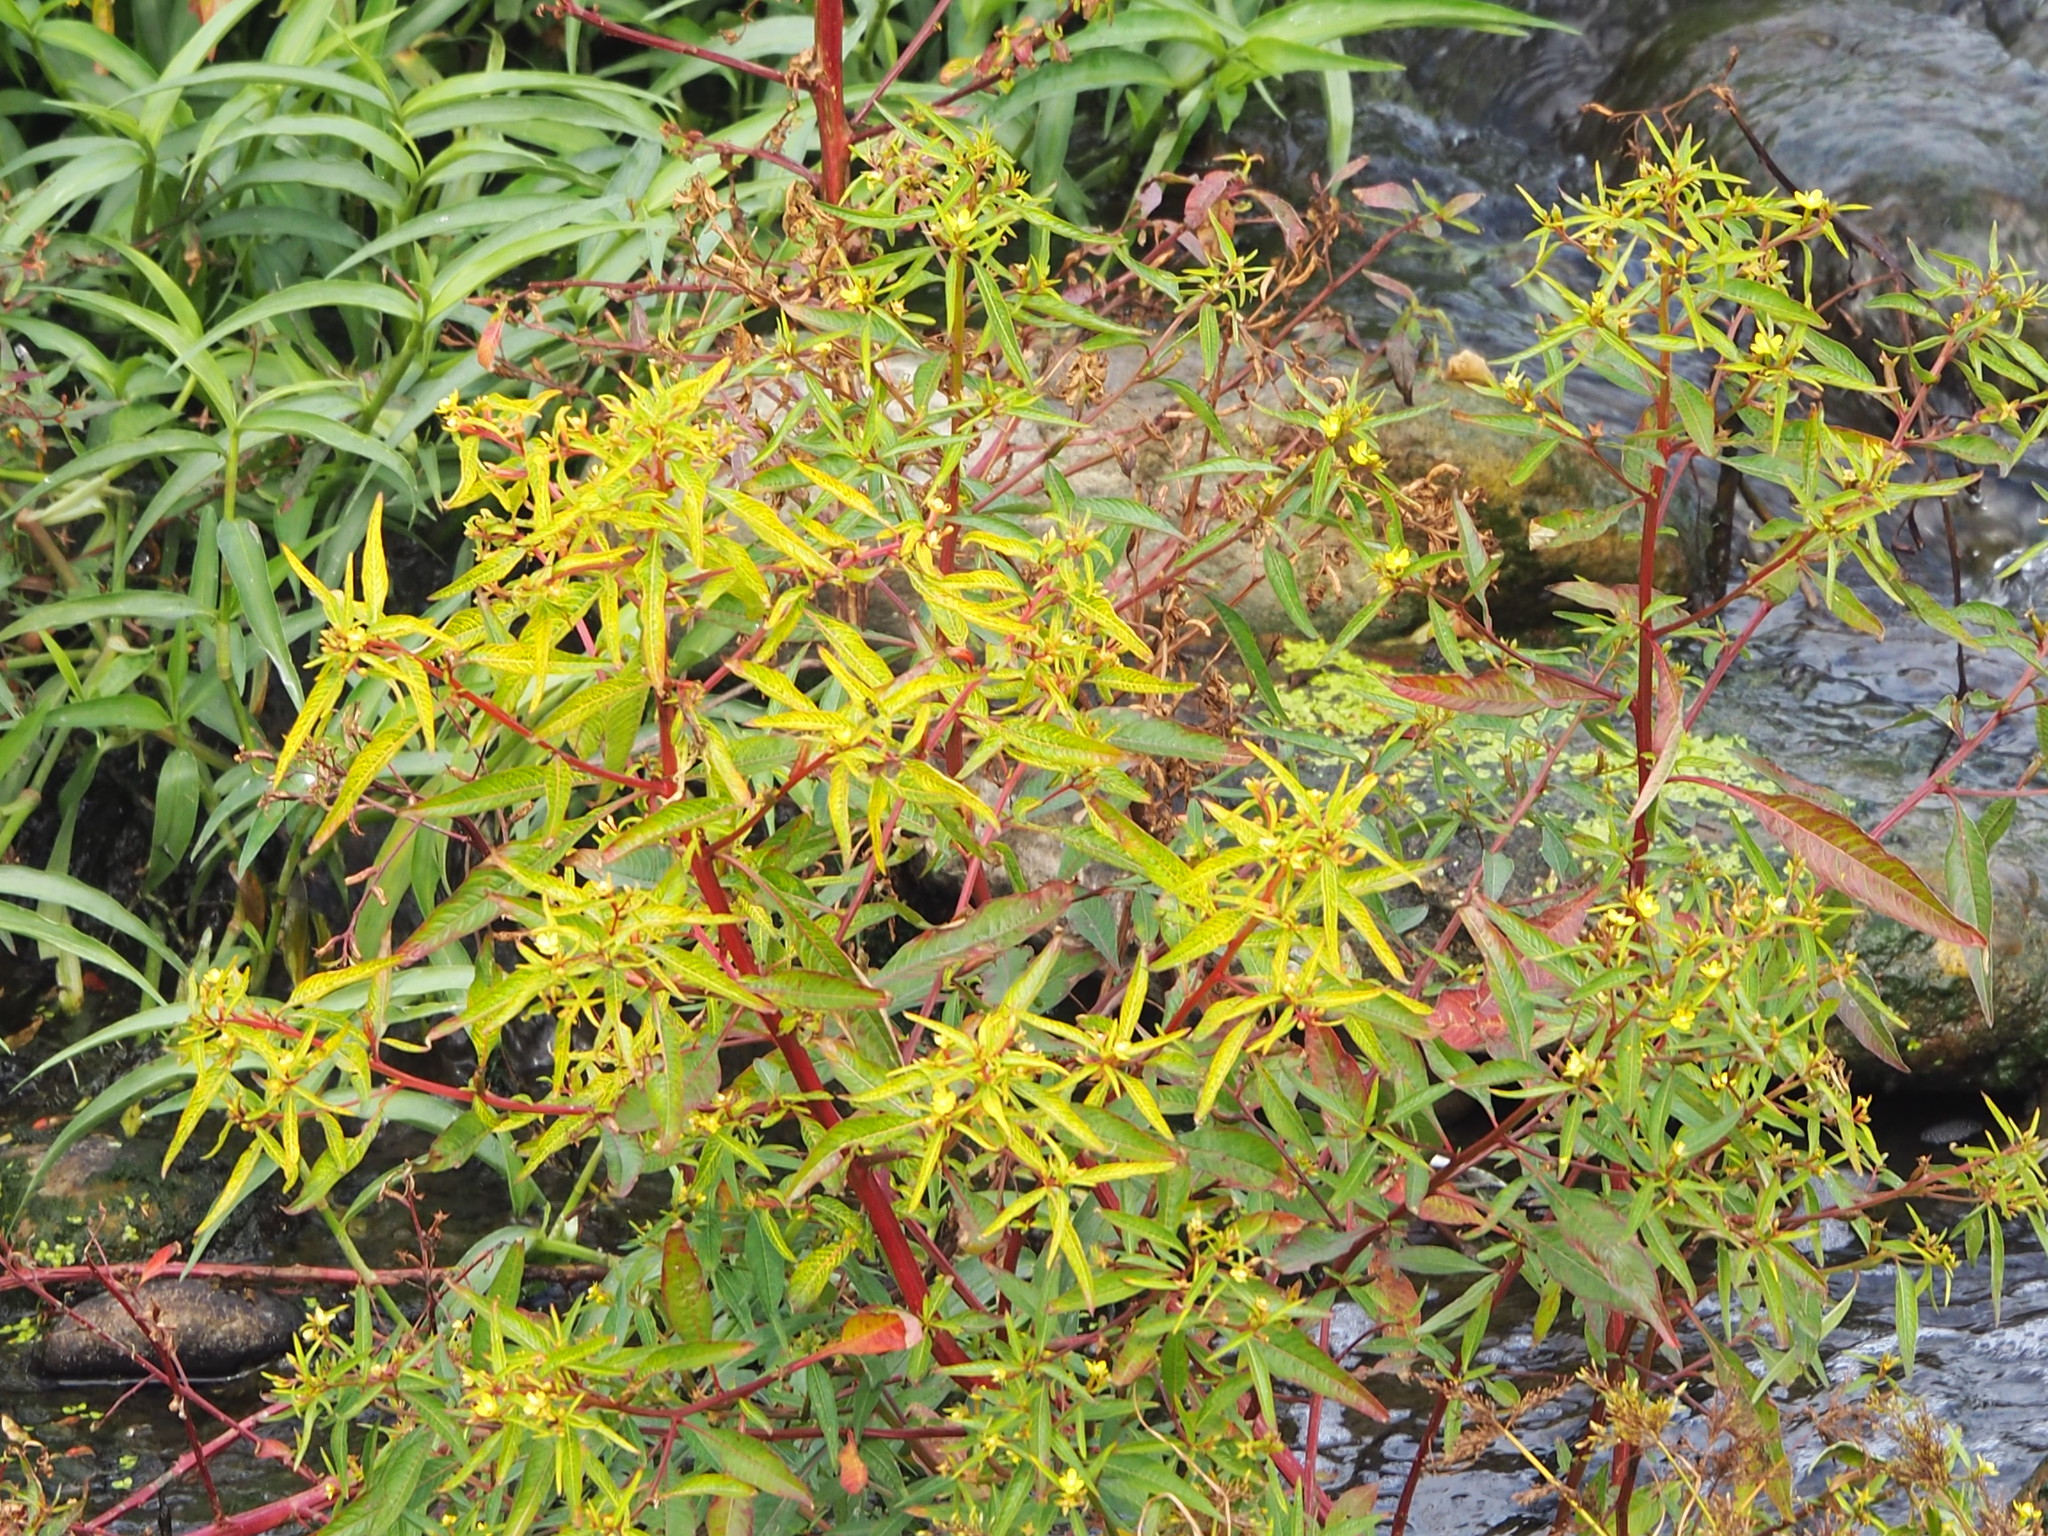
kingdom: Plantae
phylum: Tracheophyta
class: Magnoliopsida
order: Myrtales
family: Onagraceae
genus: Ludwigia
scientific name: Ludwigia hyssopifolia
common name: Linear leaf water primrose
